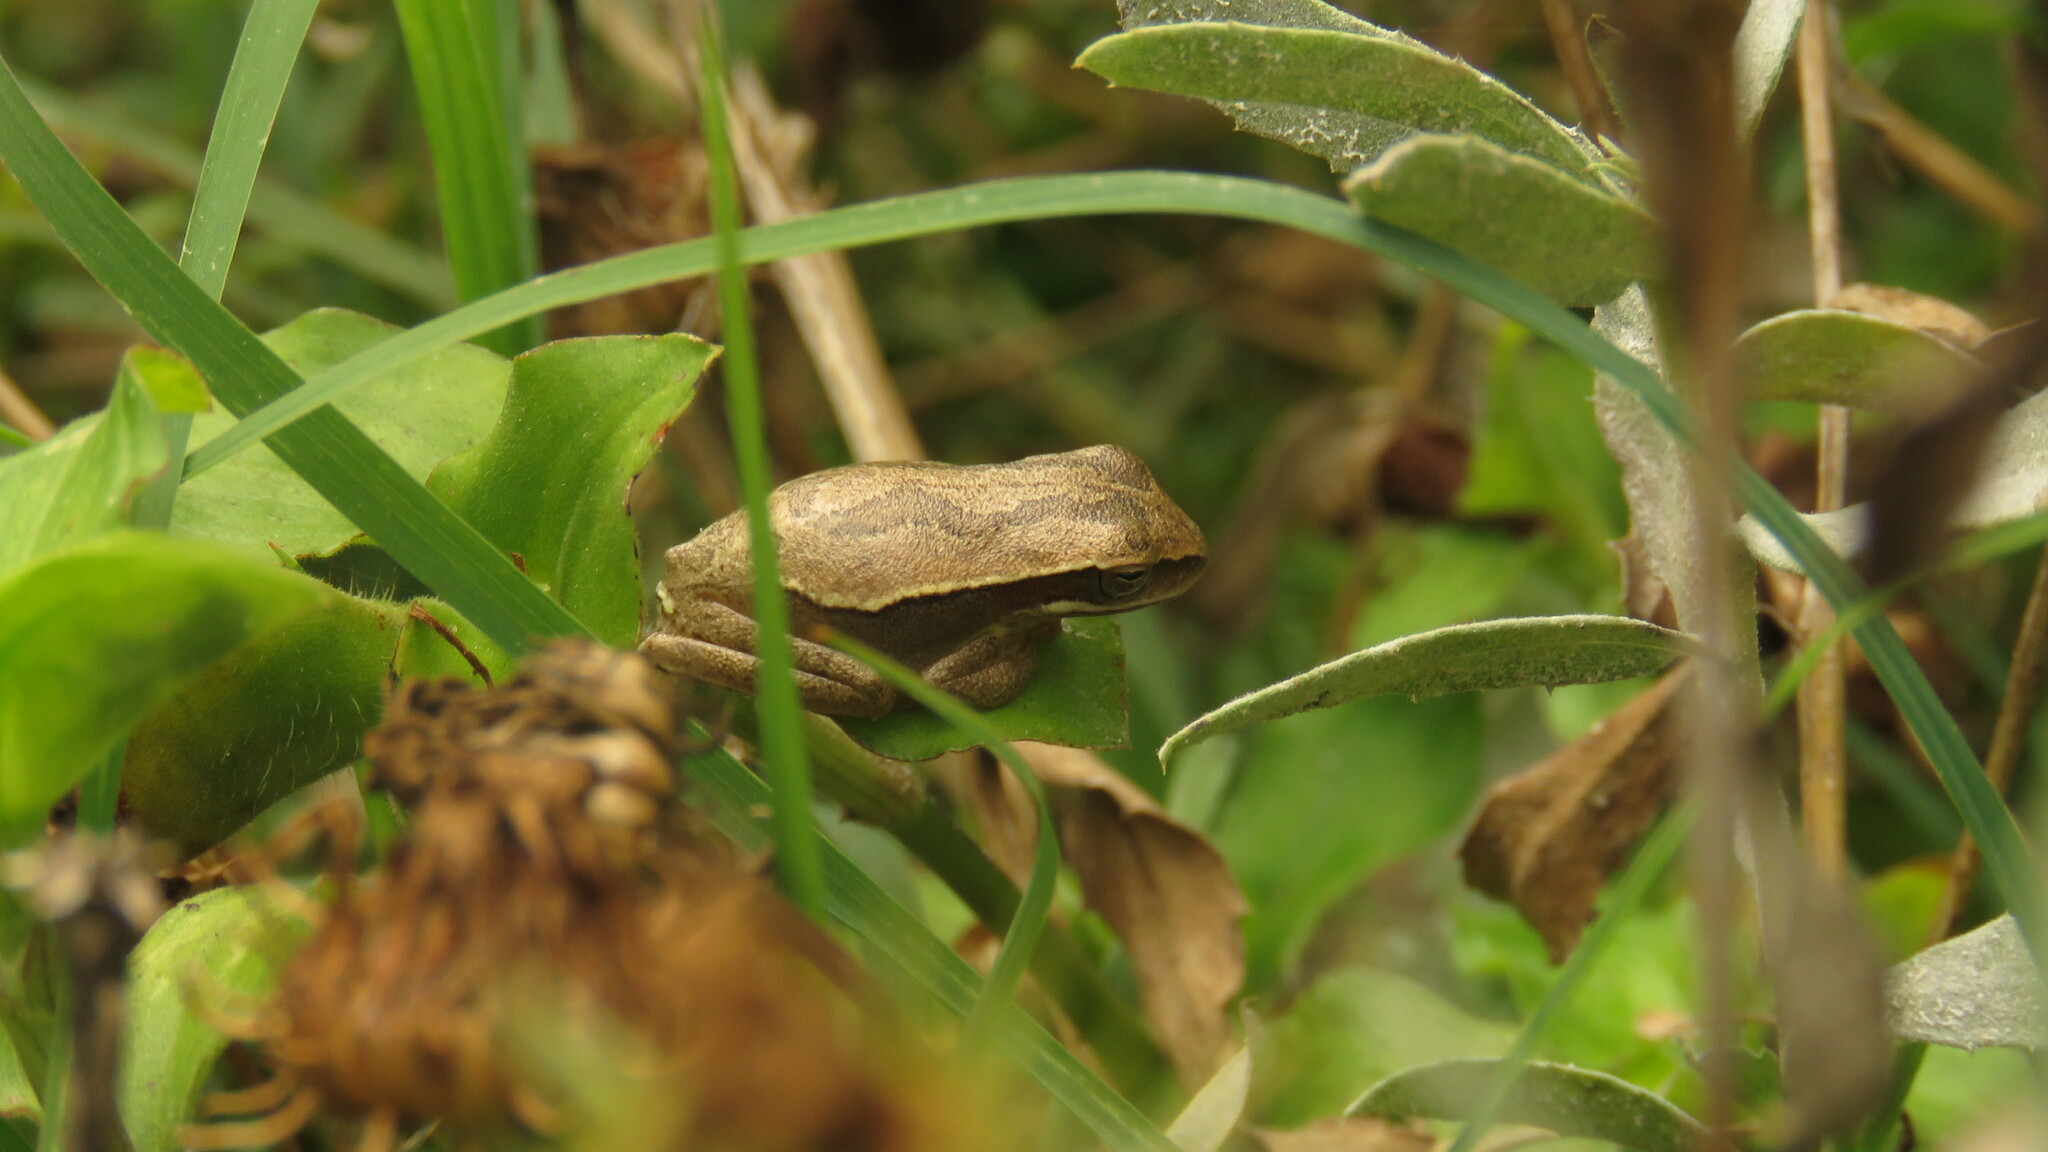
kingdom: Animalia
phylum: Chordata
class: Amphibia
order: Anura
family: Hylidae
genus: Boana
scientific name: Boana pulchella
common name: Montevideo treefrog
